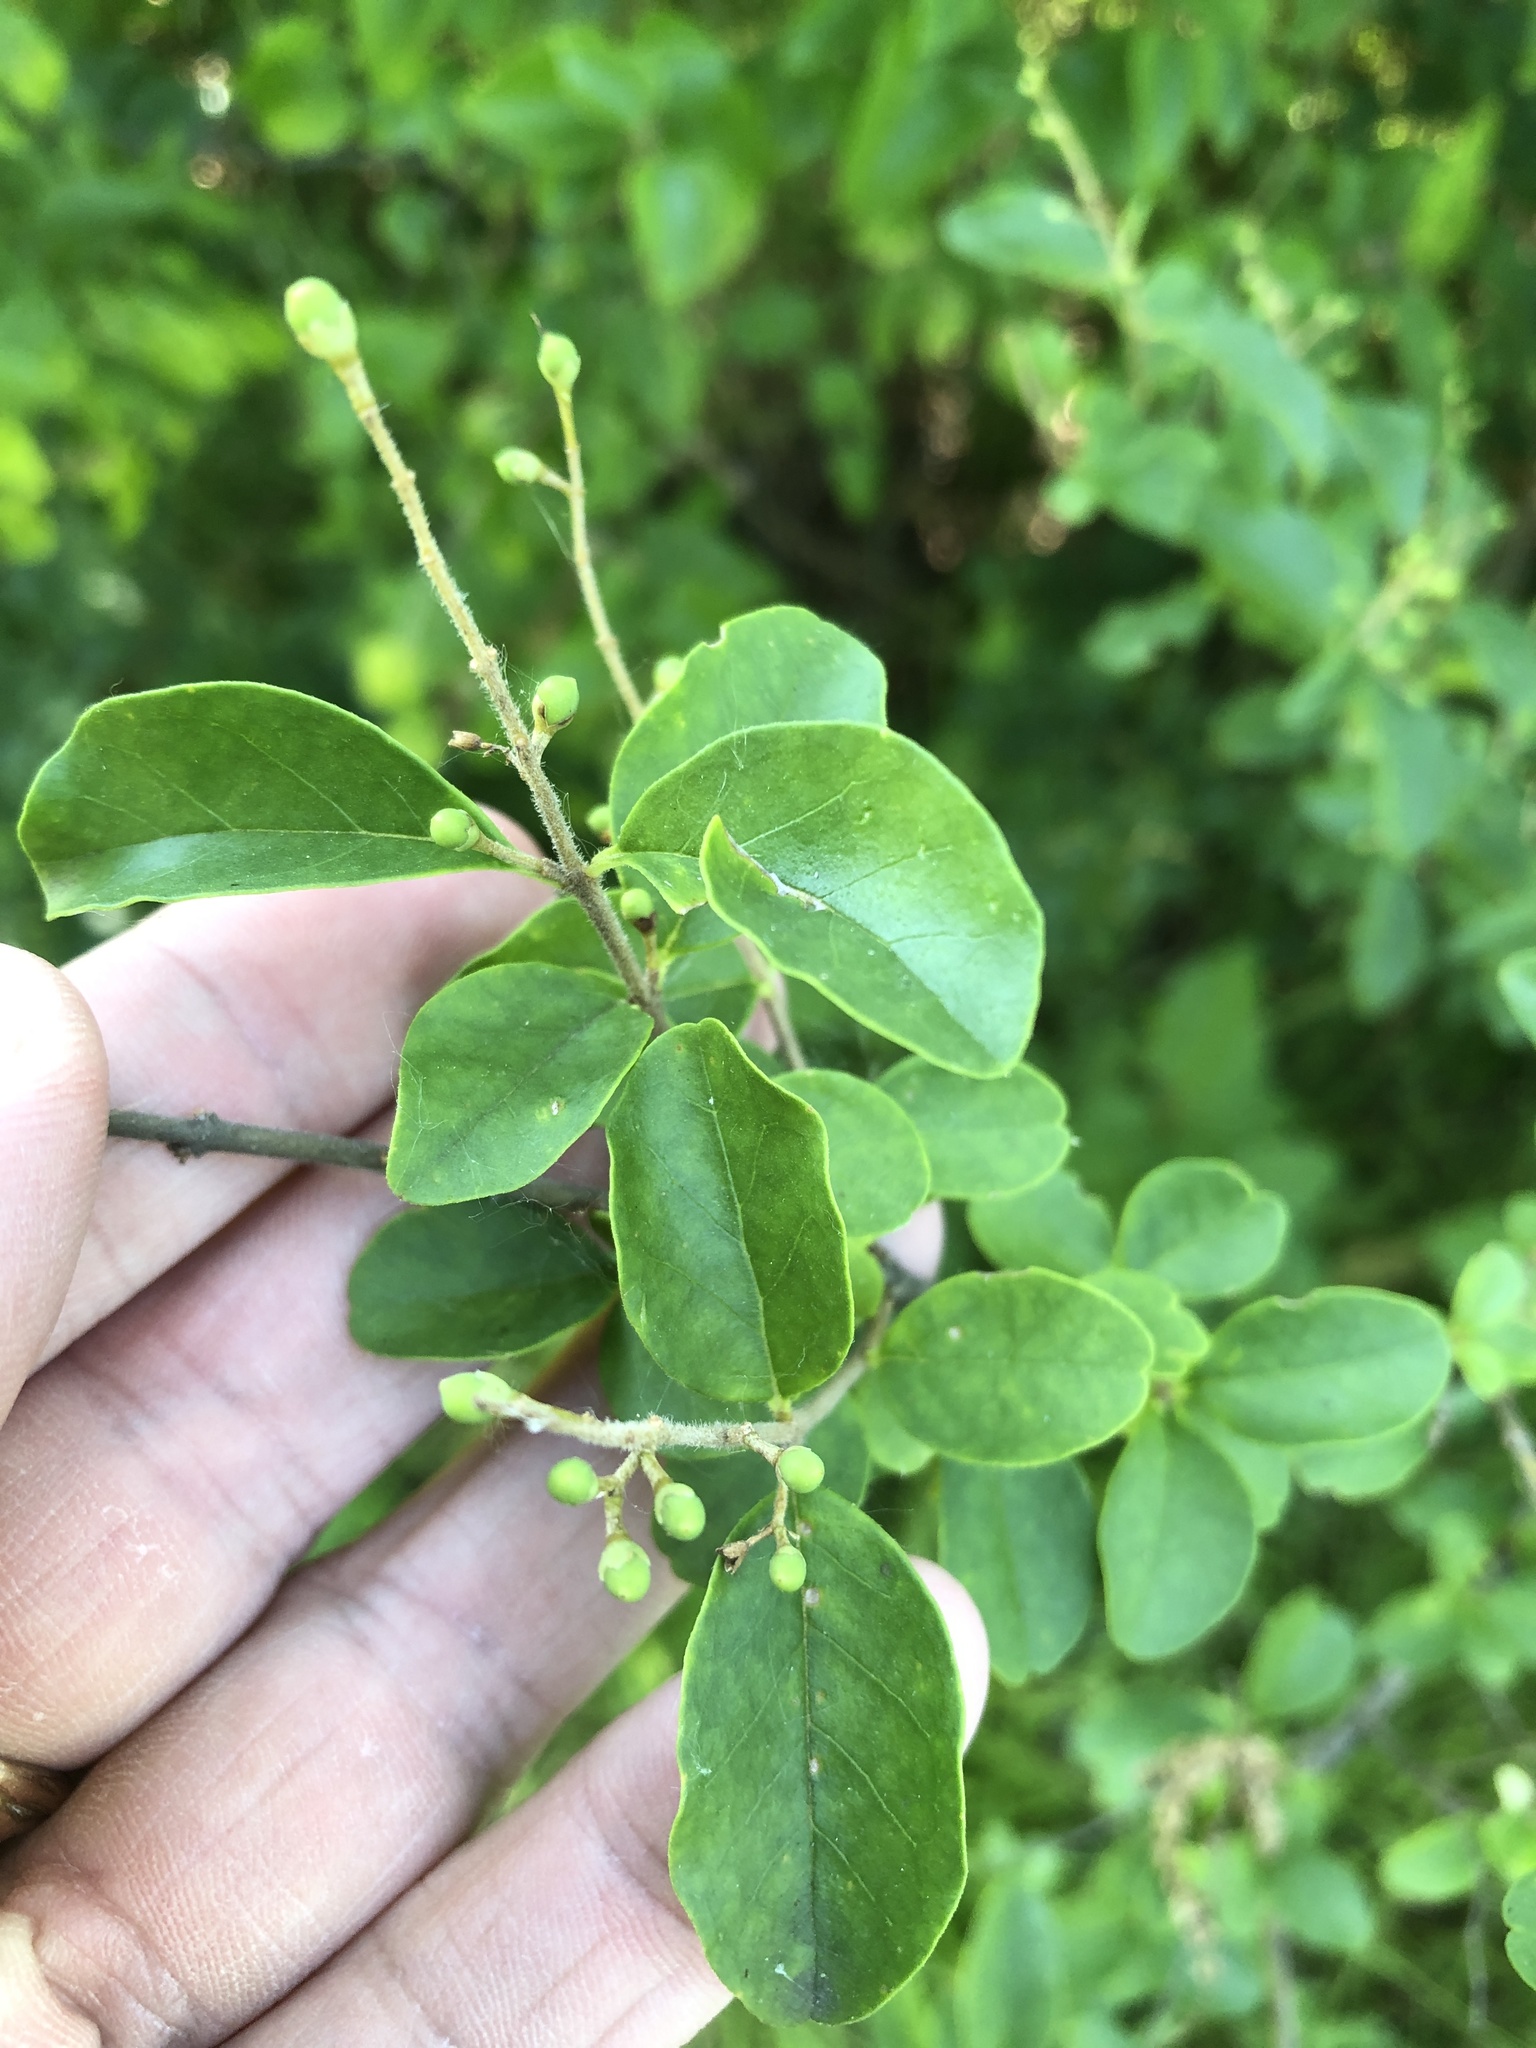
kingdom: Plantae
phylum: Tracheophyta
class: Magnoliopsida
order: Lamiales
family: Oleaceae
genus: Ligustrum
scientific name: Ligustrum sinense
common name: Chinese privet
